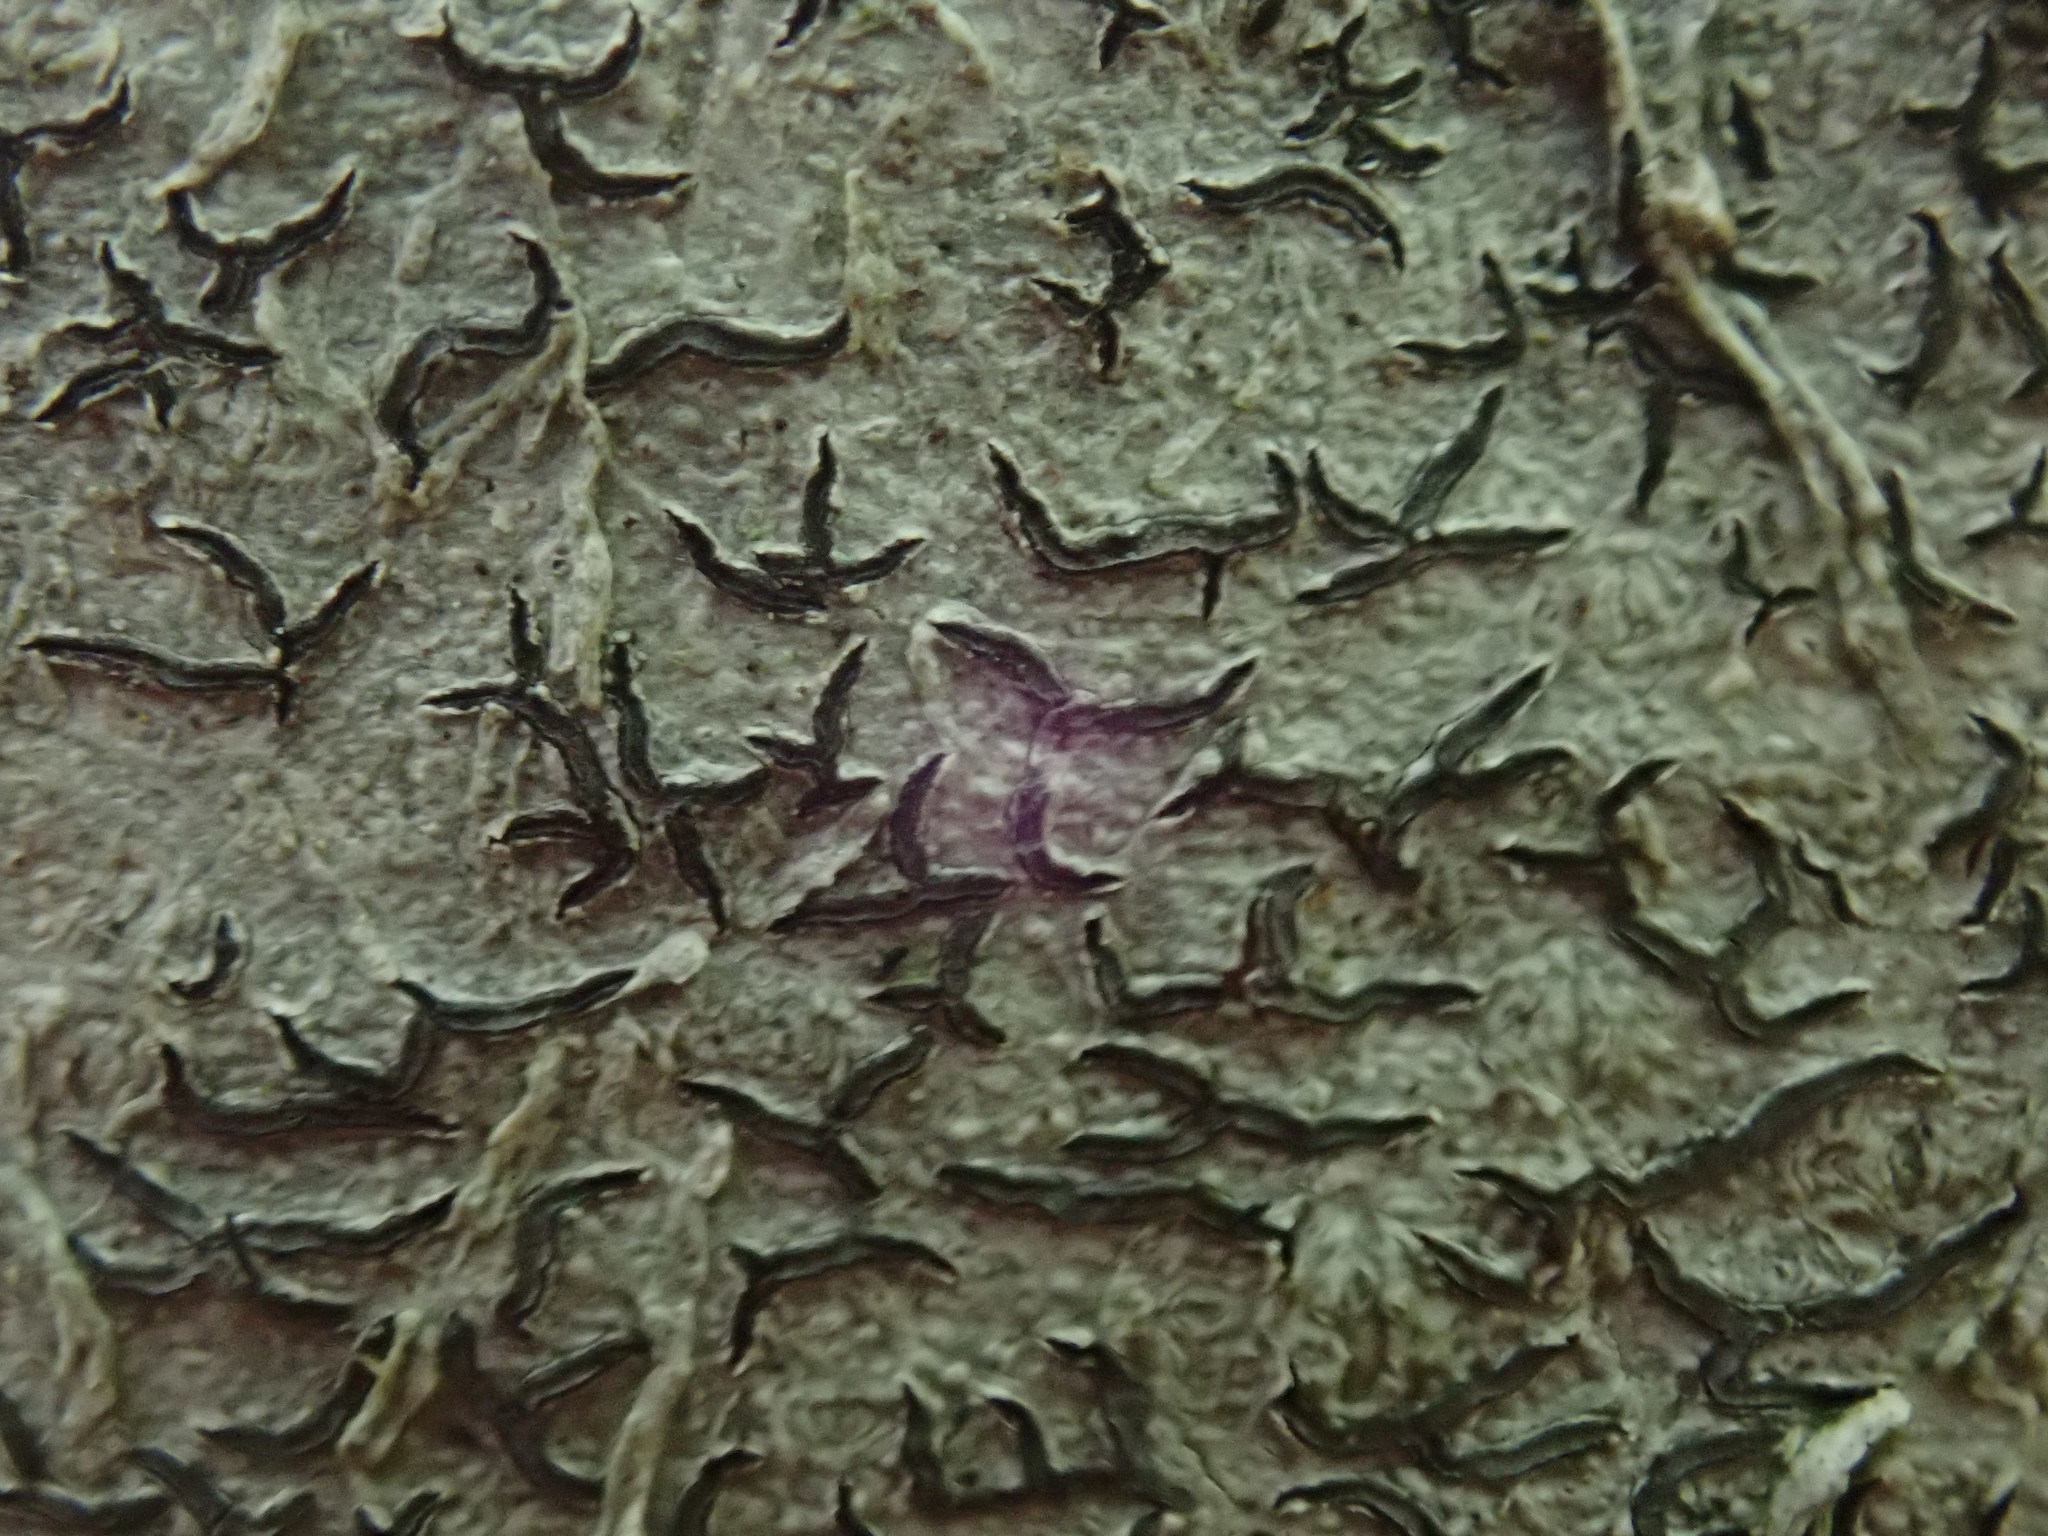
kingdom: Fungi
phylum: Ascomycota
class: Lecanoromycetes
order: Ostropales
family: Graphidaceae
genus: Graphis
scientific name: Graphis scripta
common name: Script lichen
